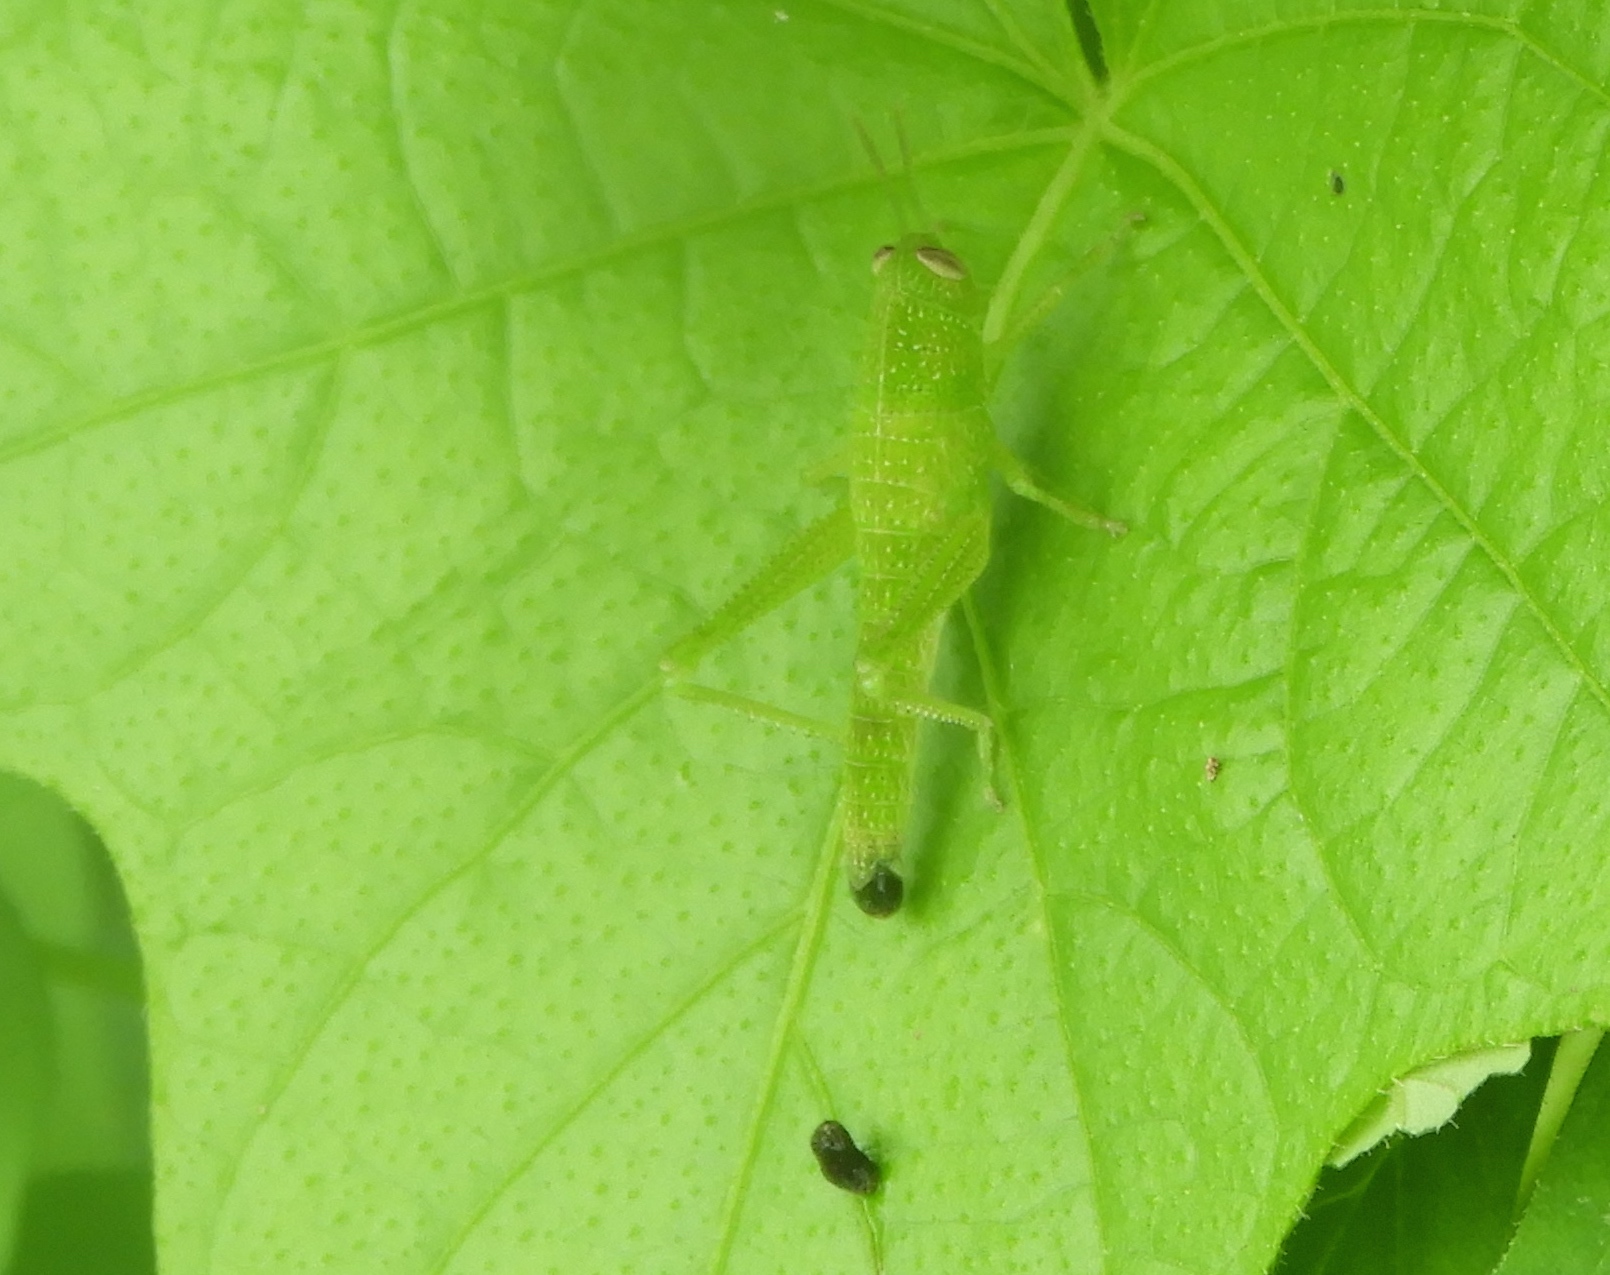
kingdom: Animalia
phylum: Arthropoda
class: Insecta
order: Orthoptera
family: Acrididae
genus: Schistocerca
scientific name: Schistocerca camerata
